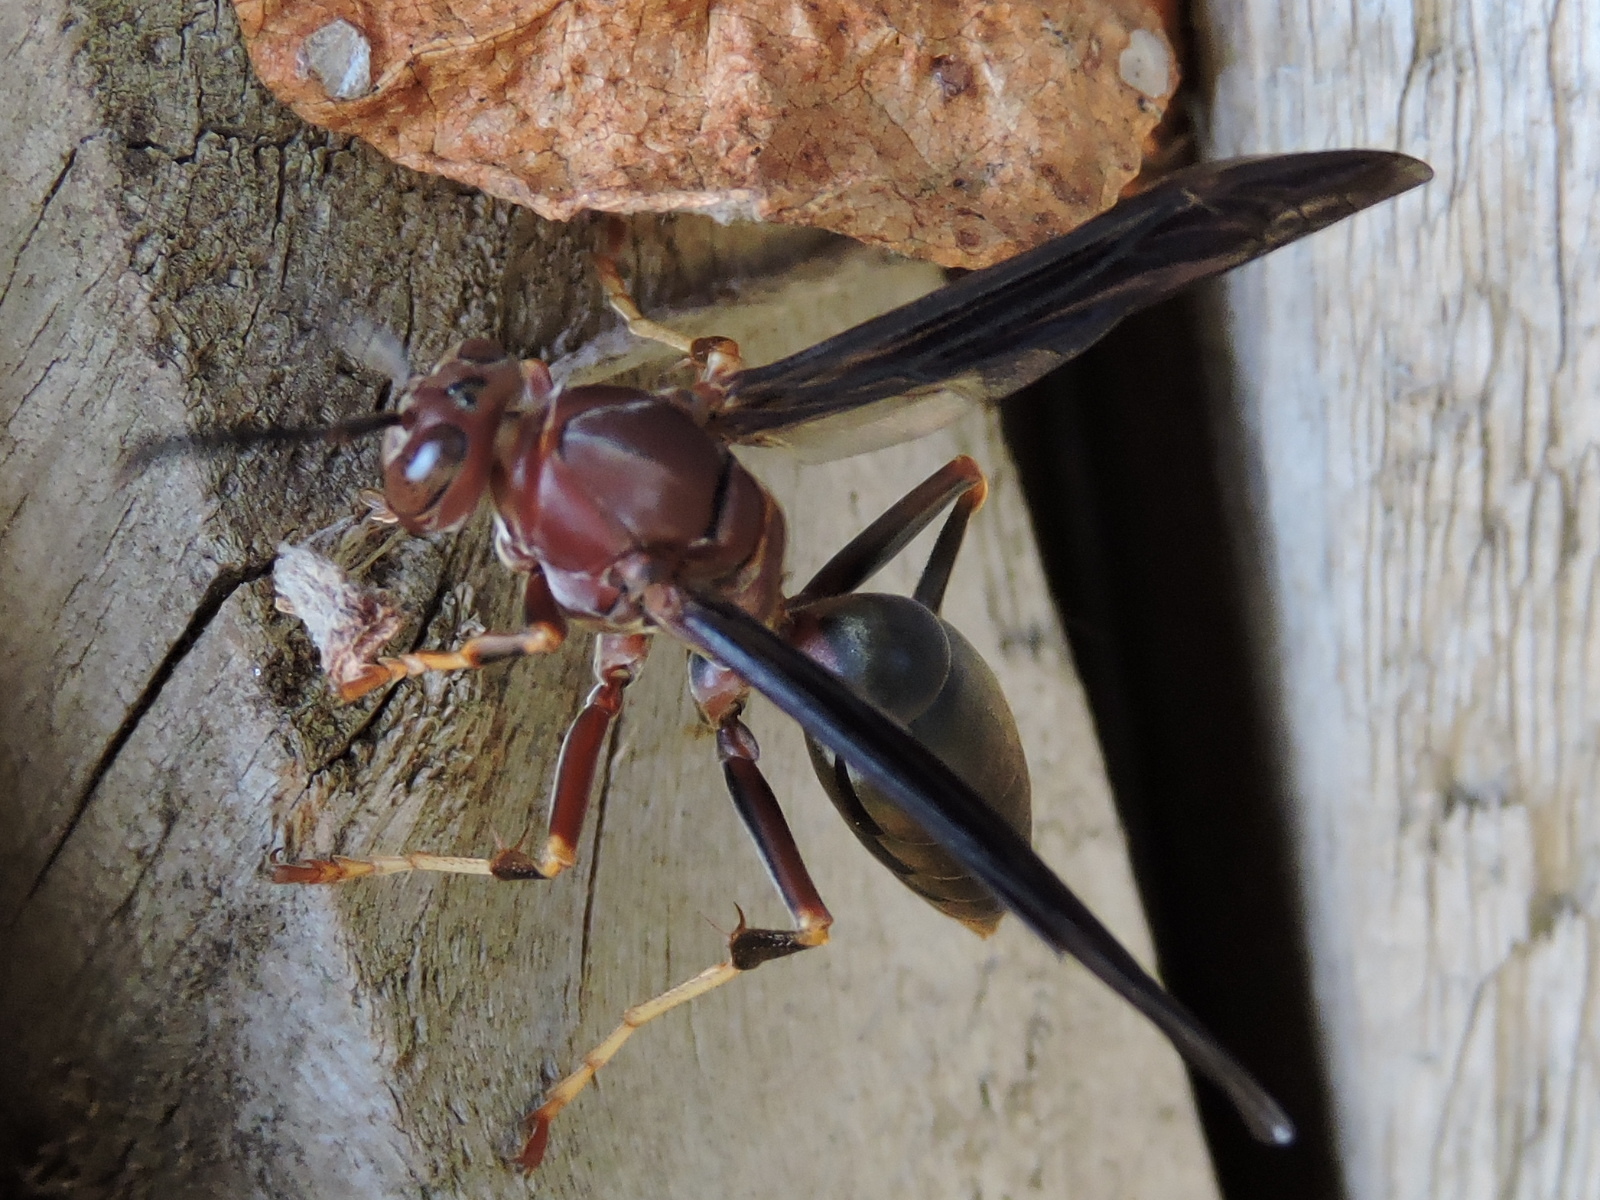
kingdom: Animalia
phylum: Arthropoda
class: Insecta
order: Hymenoptera
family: Eumenidae
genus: Polistes
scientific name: Polistes metricus
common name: Metric paper wasp
